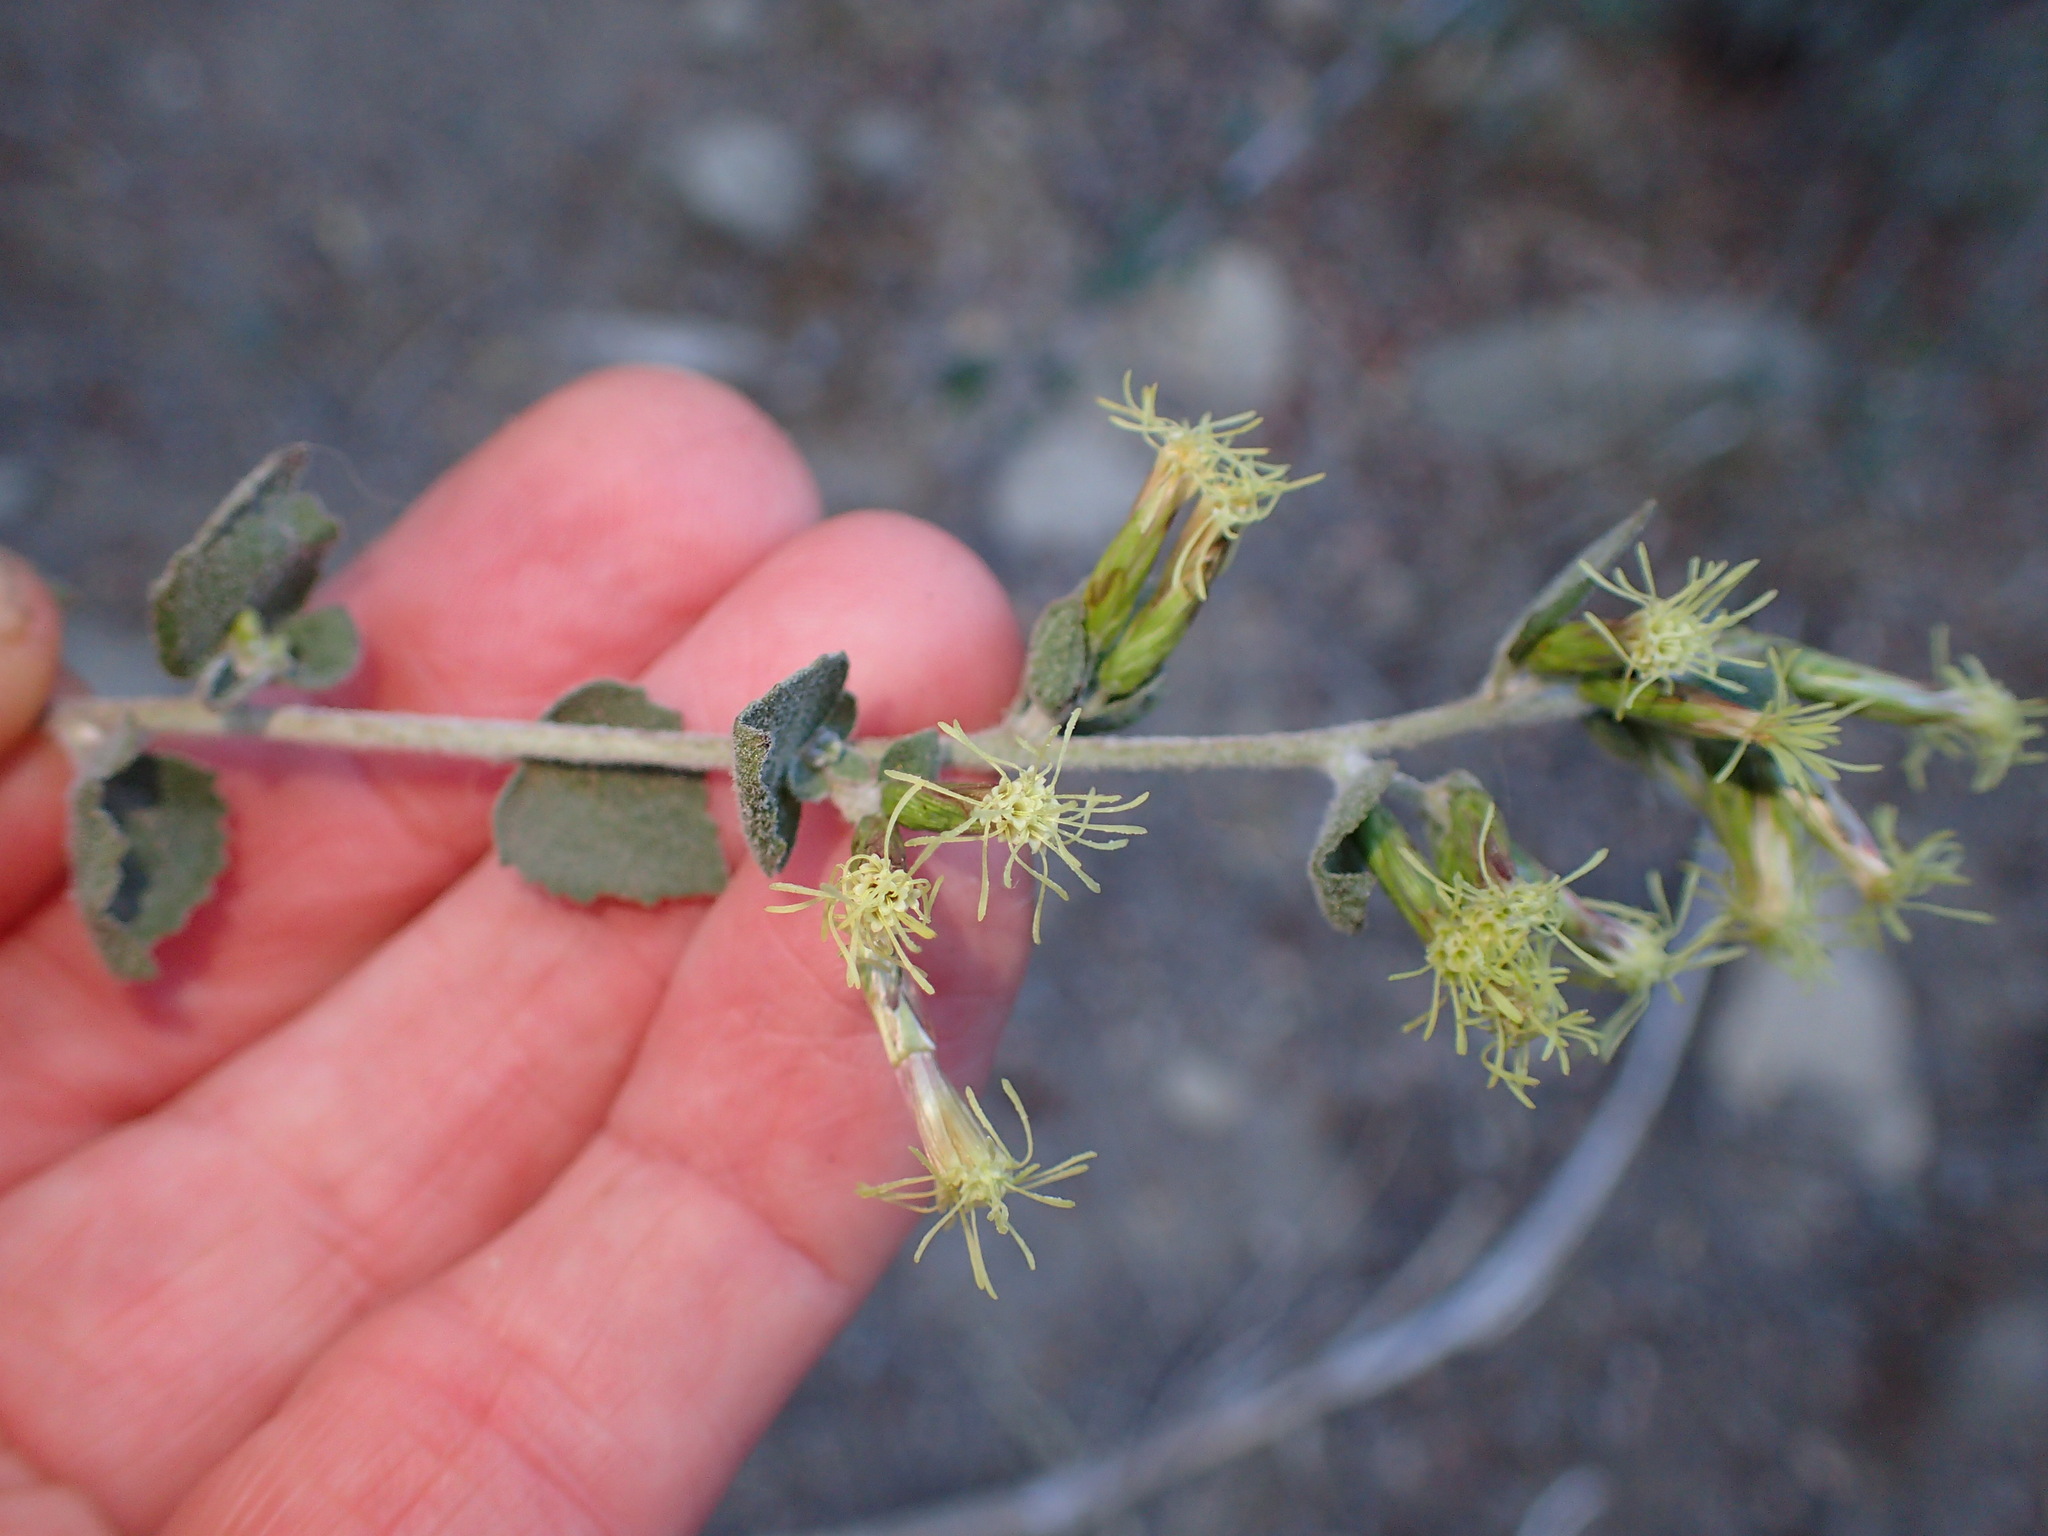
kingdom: Plantae
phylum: Tracheophyta
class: Magnoliopsida
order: Asterales
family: Asteraceae
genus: Brickellia
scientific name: Brickellia californica
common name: California brickellbush
